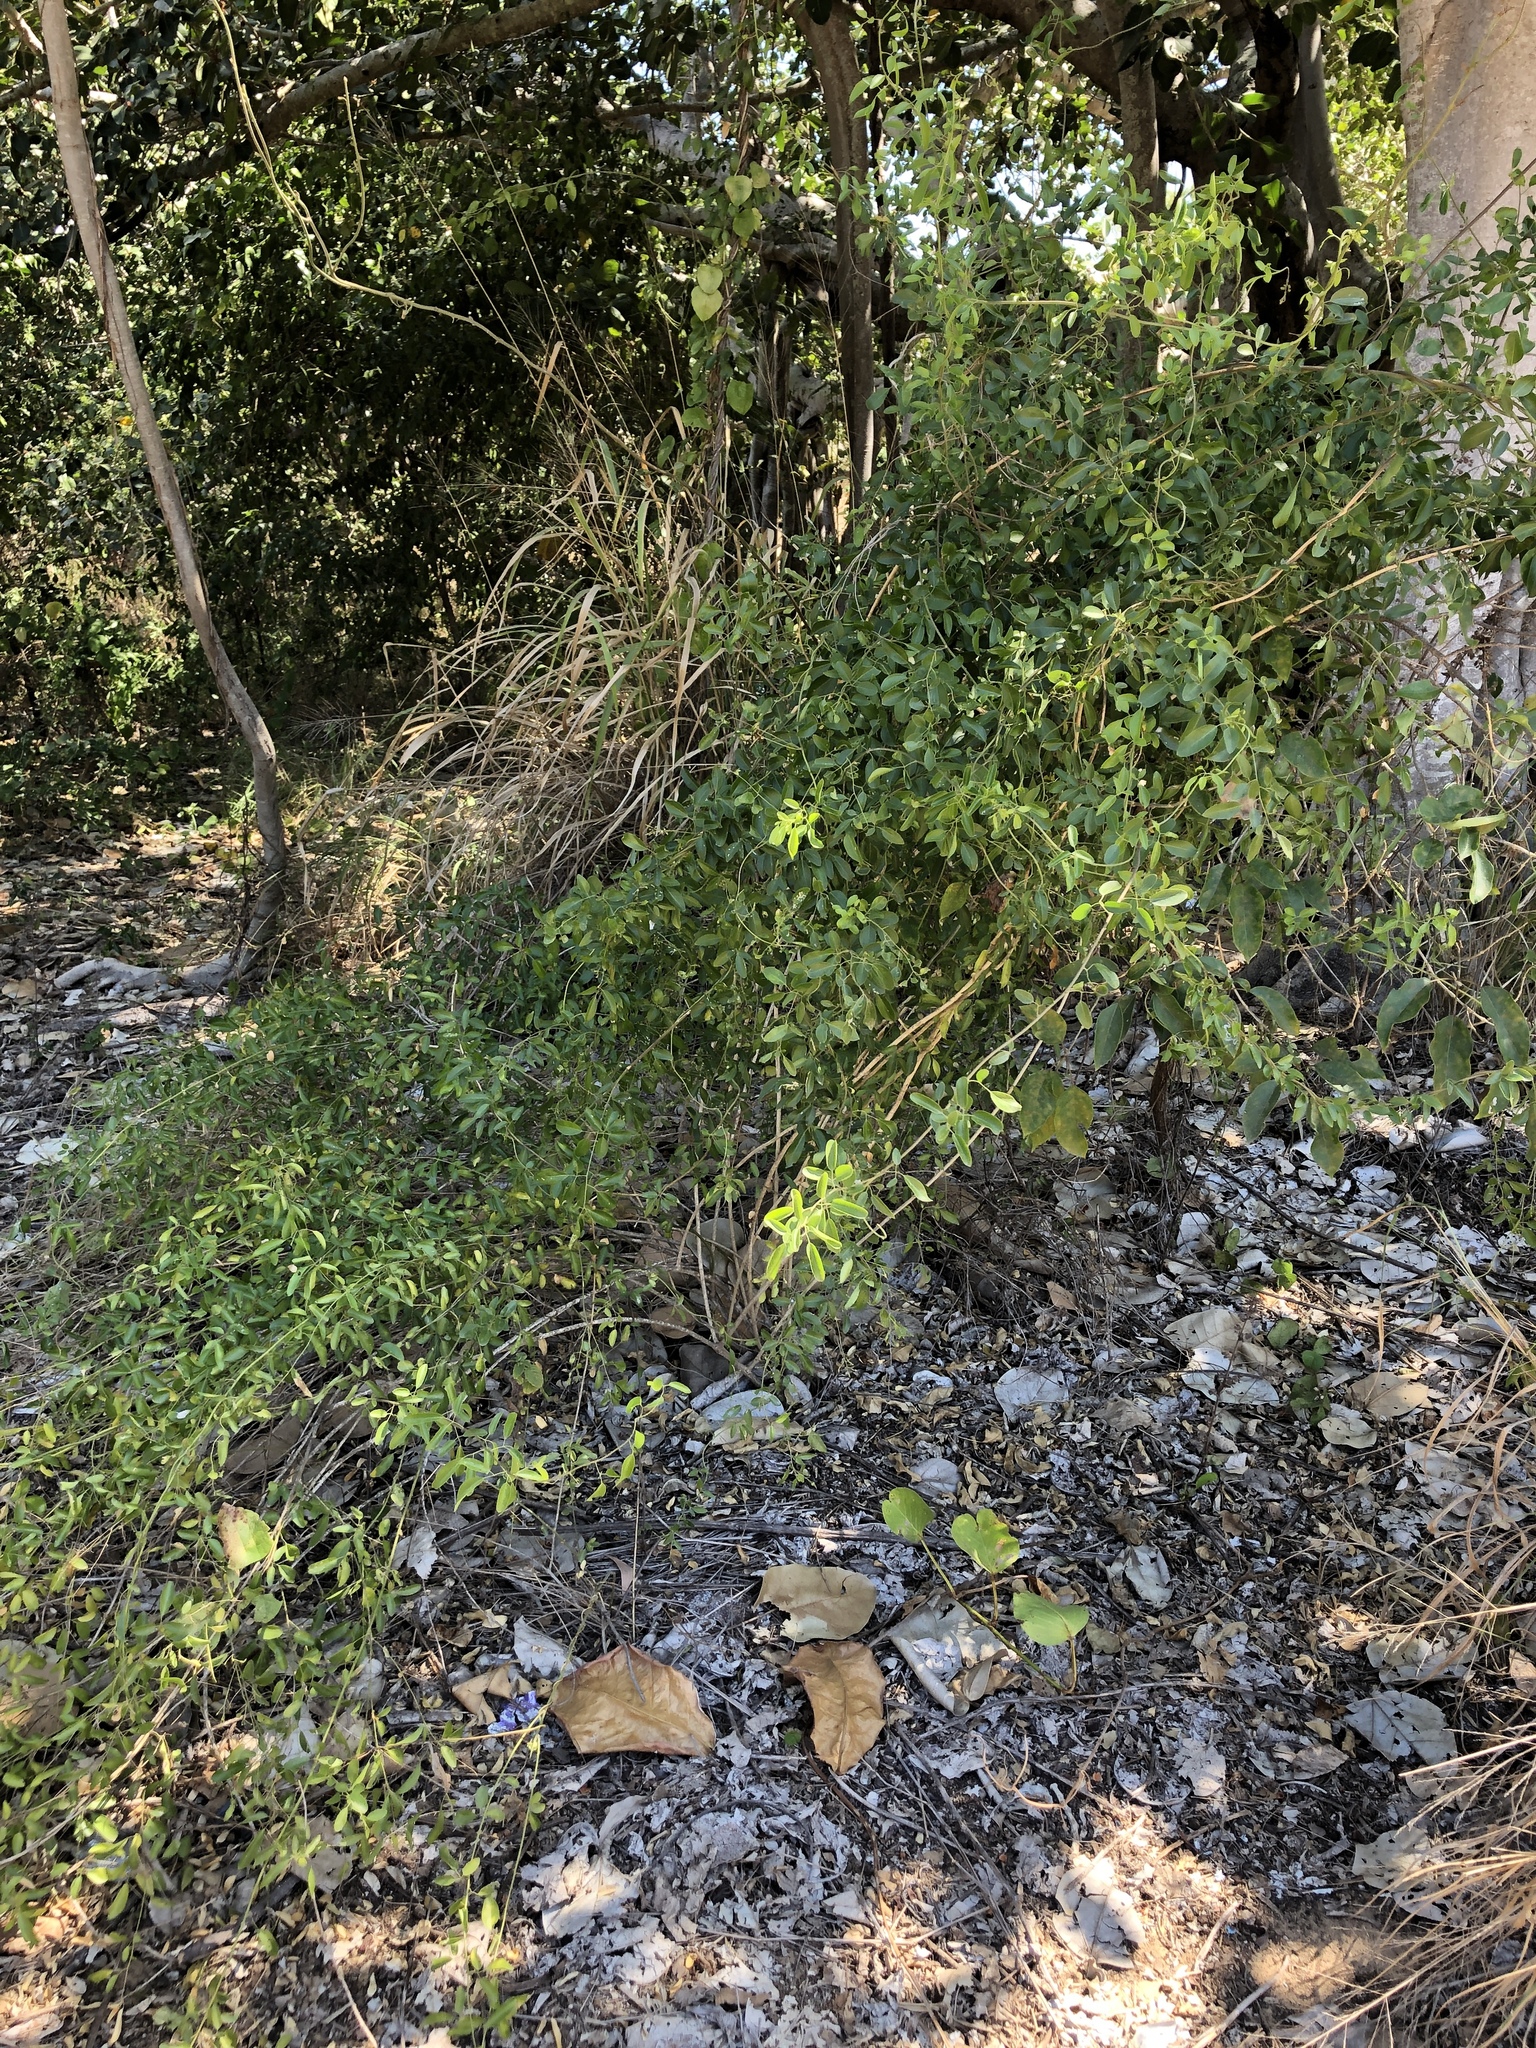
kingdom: Plantae
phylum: Tracheophyta
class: Magnoliopsida
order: Lamiales
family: Oleaceae
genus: Jasminum
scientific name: Jasminum didymum
